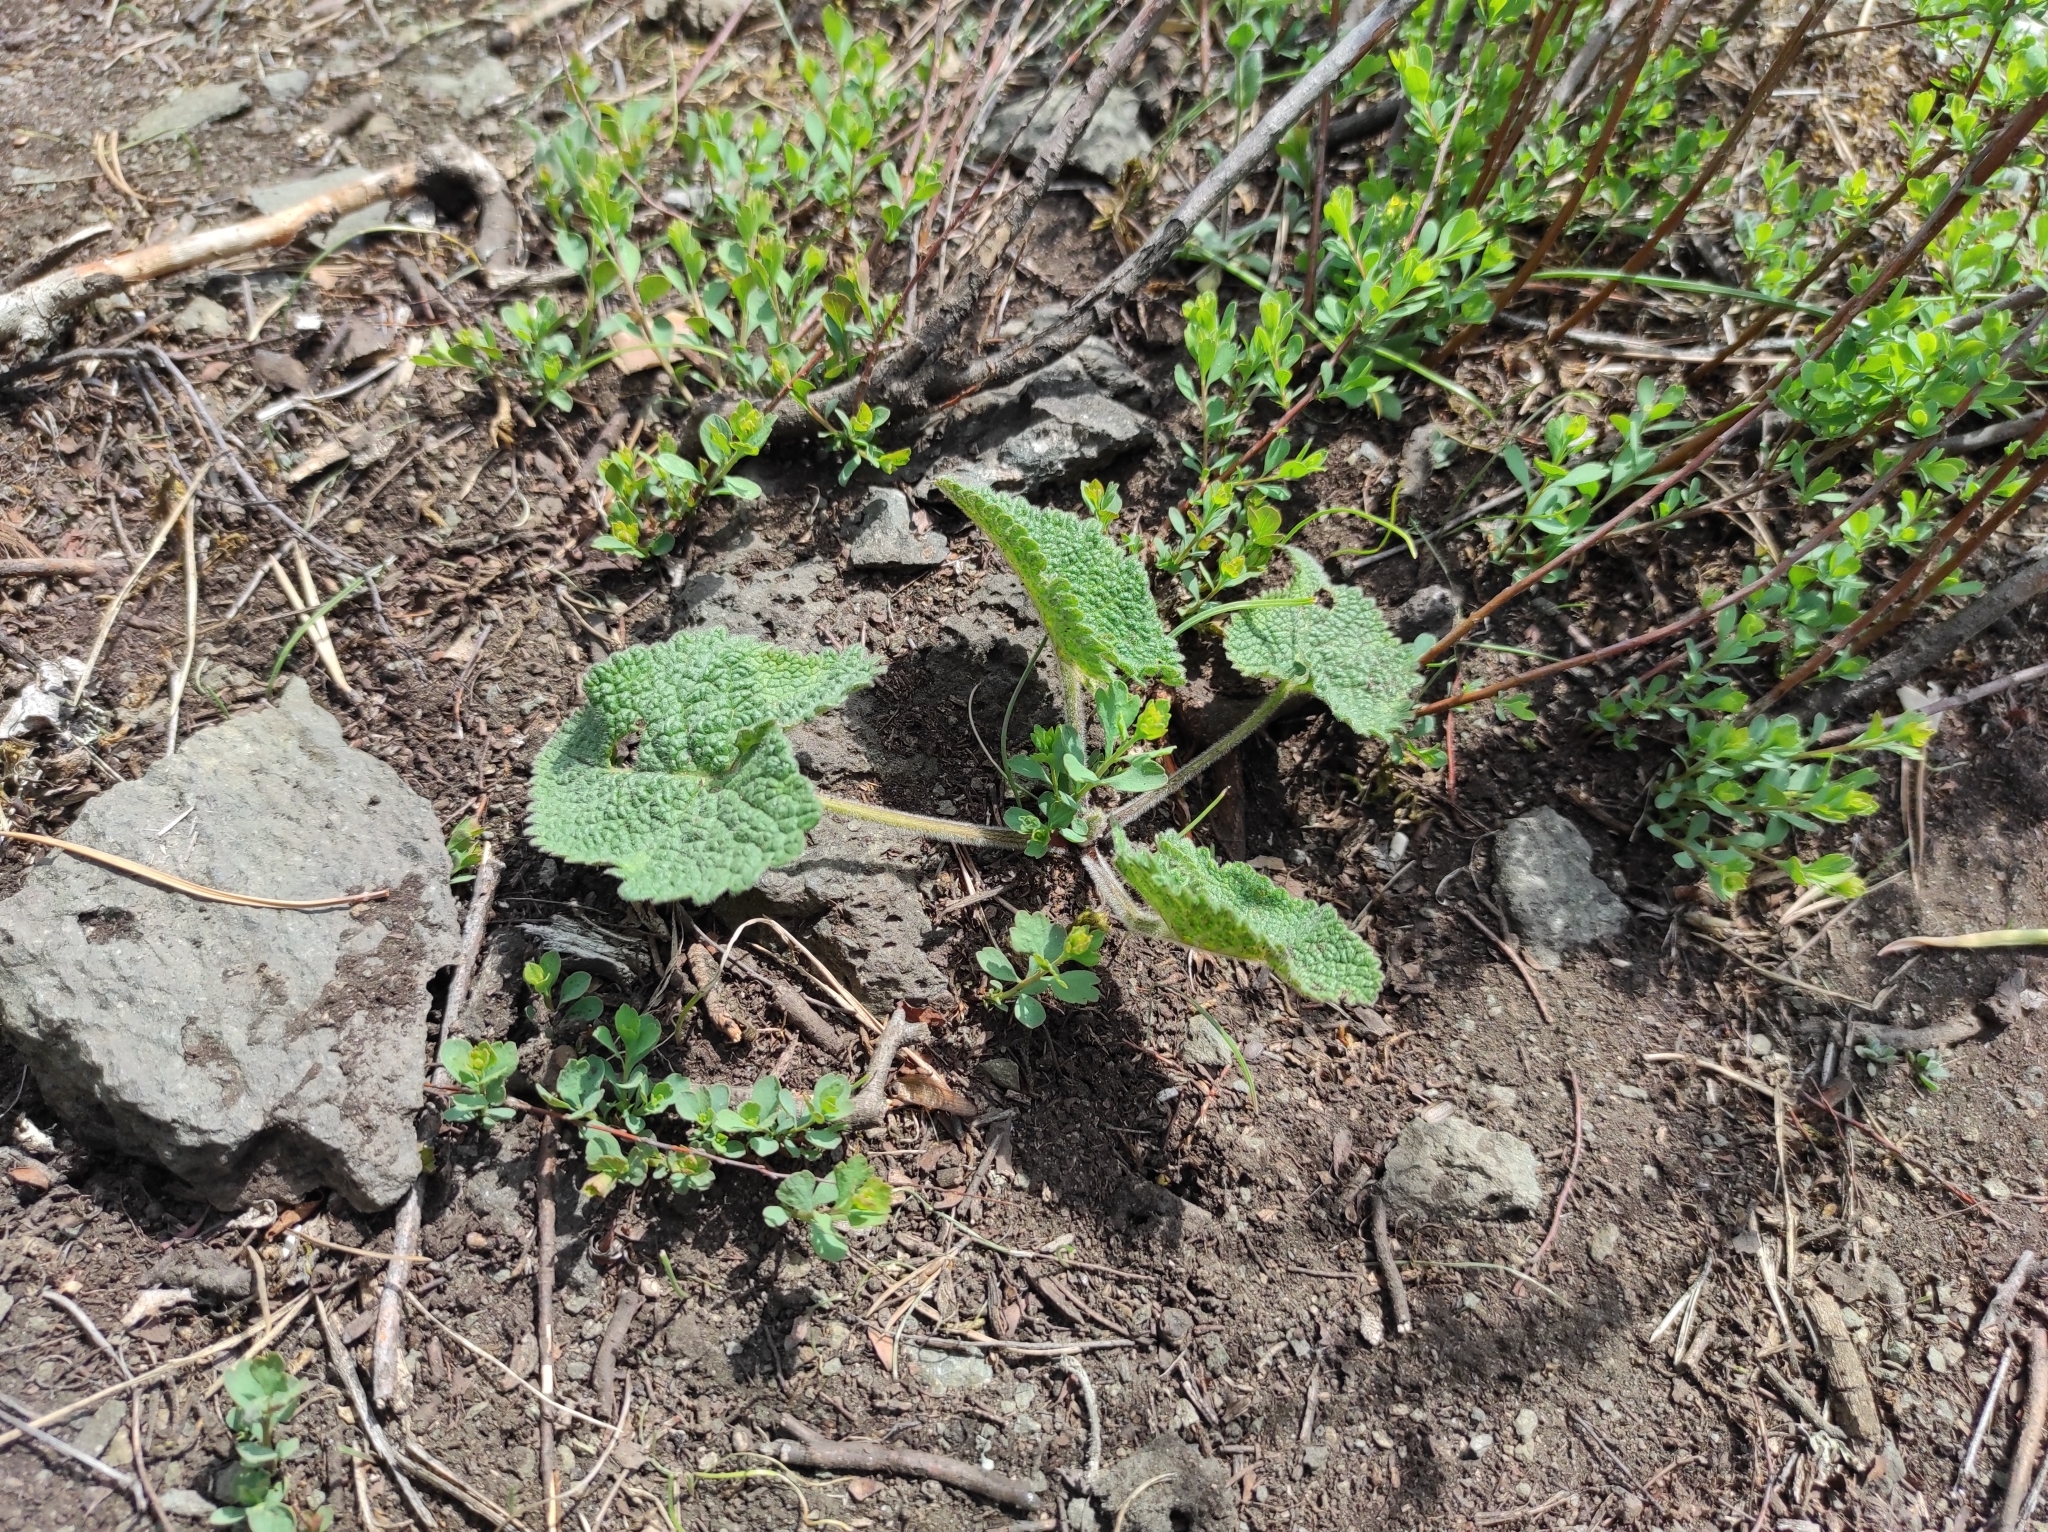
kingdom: Plantae
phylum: Tracheophyta
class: Magnoliopsida
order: Lamiales
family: Lamiaceae
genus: Phlomoides
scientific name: Phlomoides tuberosa
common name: Tuberous jerusalem sage
